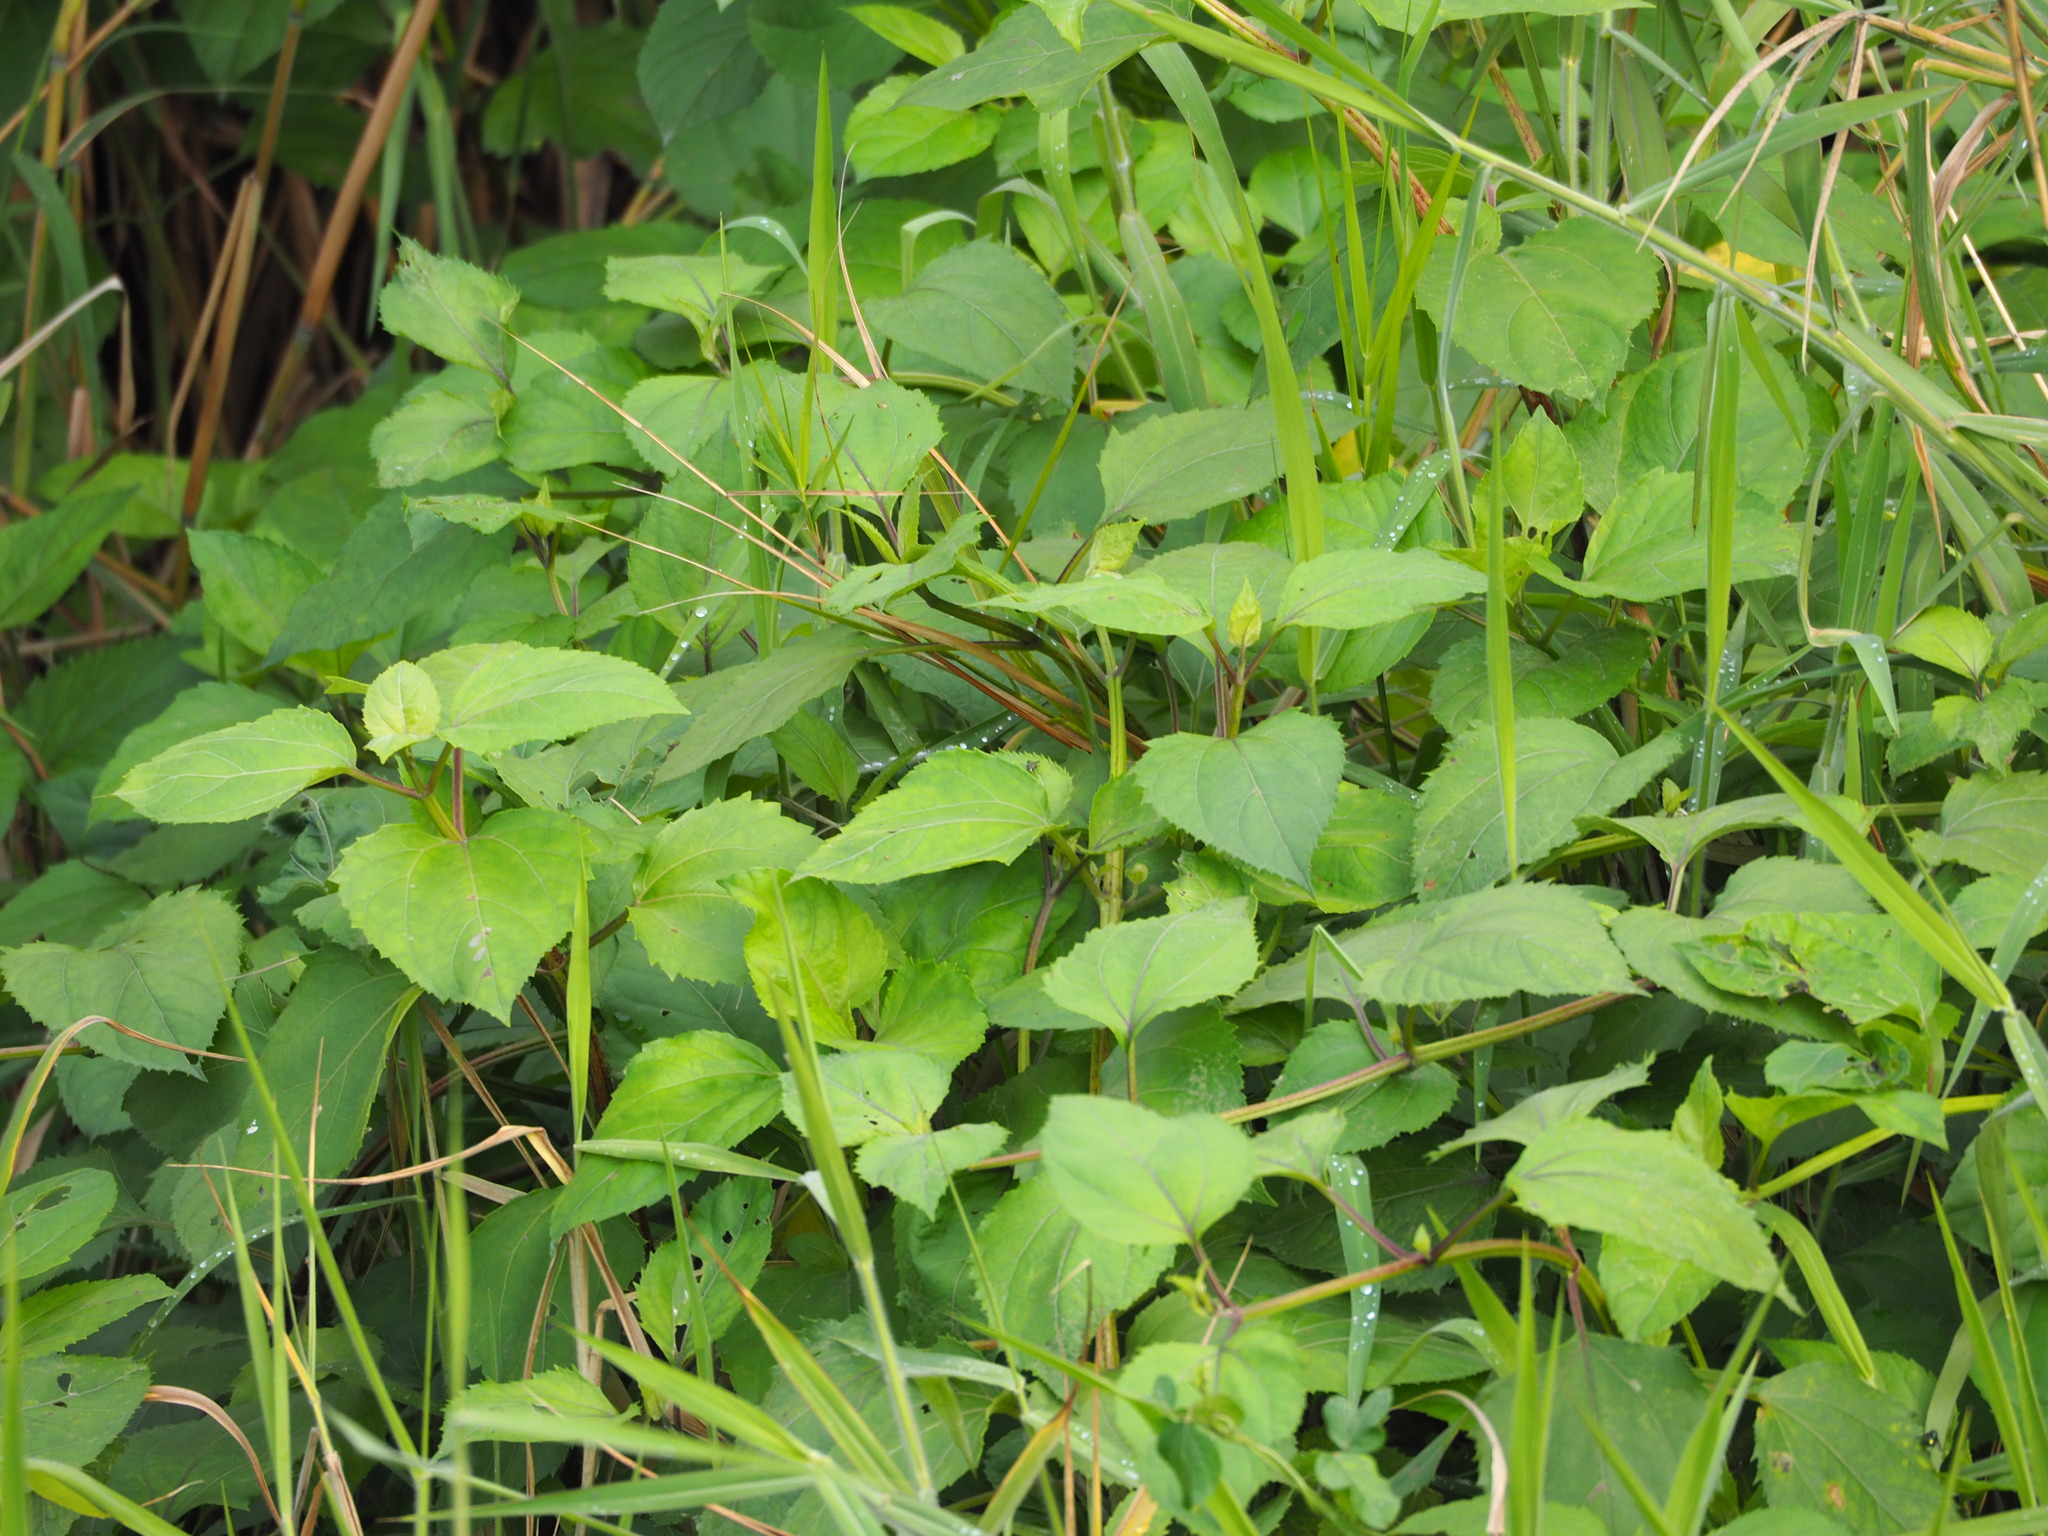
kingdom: Plantae
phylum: Tracheophyta
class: Magnoliopsida
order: Asterales
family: Asteraceae
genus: Wollastonia
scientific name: Wollastonia biflora
